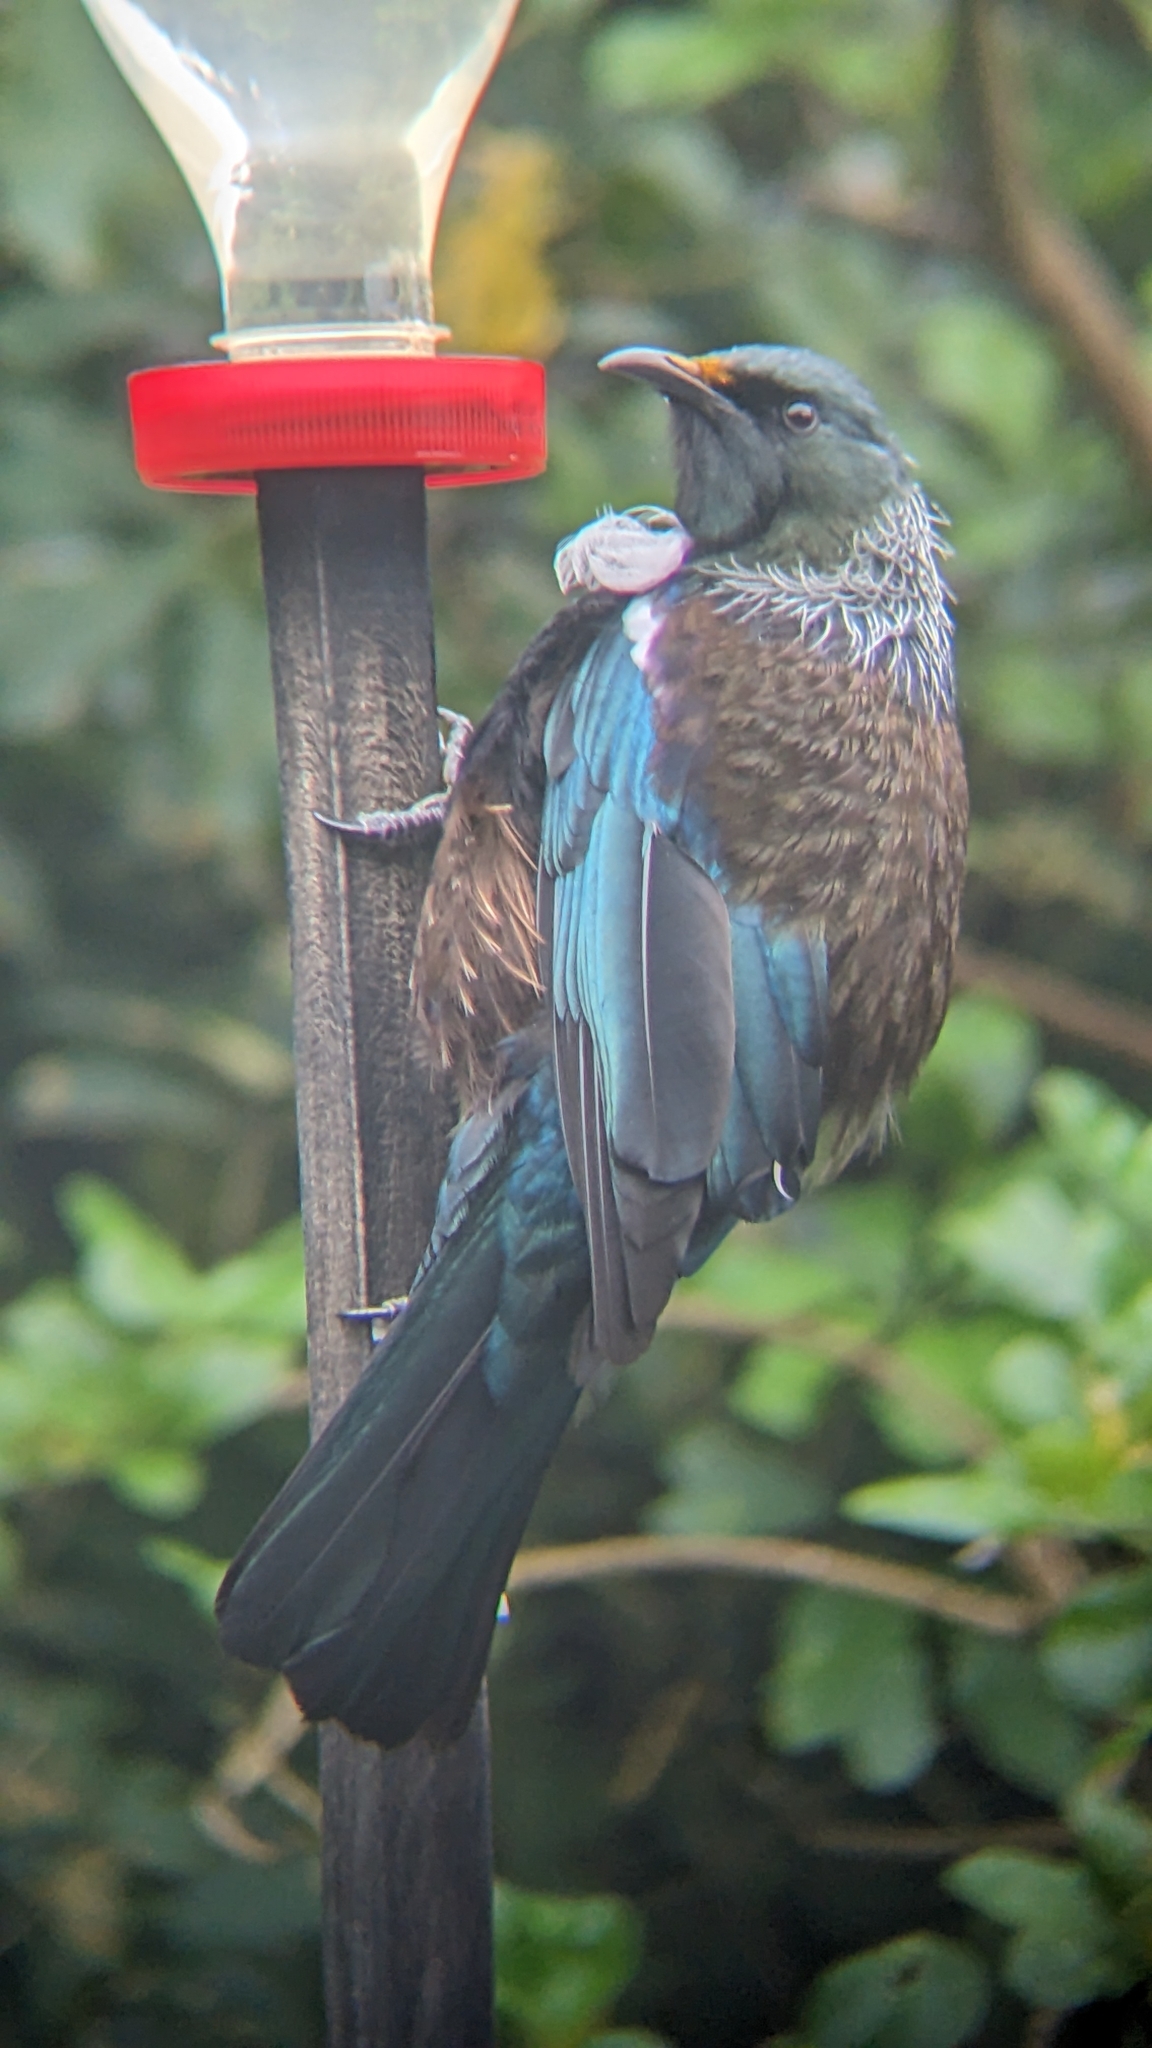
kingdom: Animalia
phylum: Chordata
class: Aves
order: Passeriformes
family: Meliphagidae
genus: Prosthemadera
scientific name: Prosthemadera novaeseelandiae
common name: Tui
